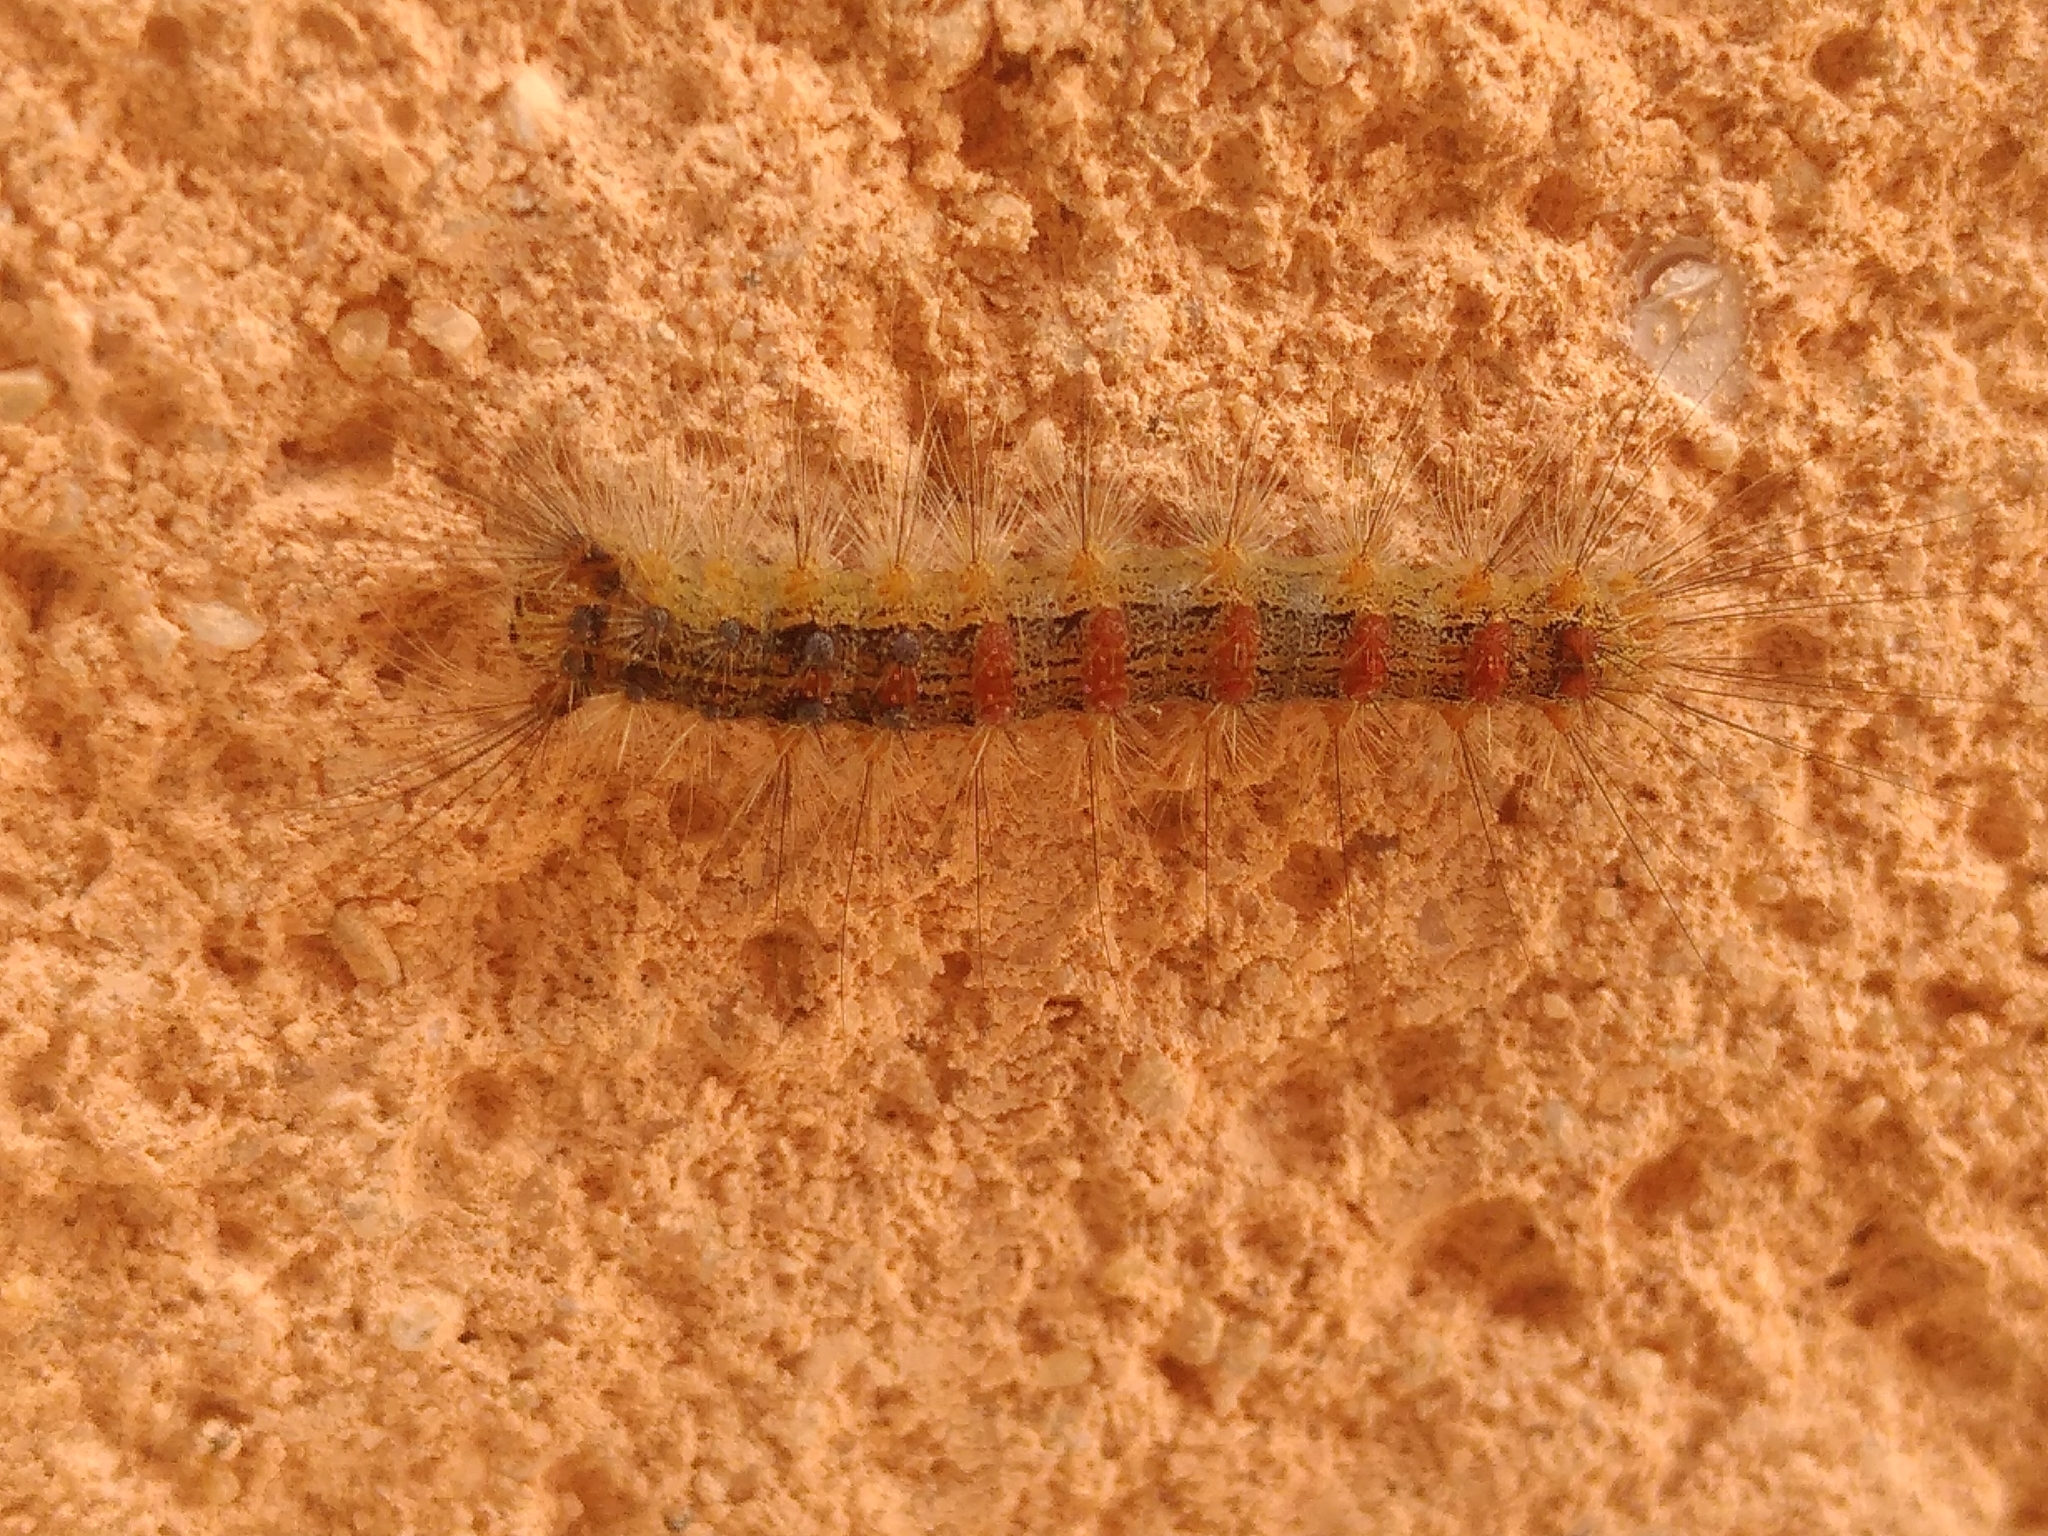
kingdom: Animalia
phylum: Arthropoda
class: Insecta
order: Lepidoptera
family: Erebidae
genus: Lymantria
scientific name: Lymantria dispar
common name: Gypsy moth
